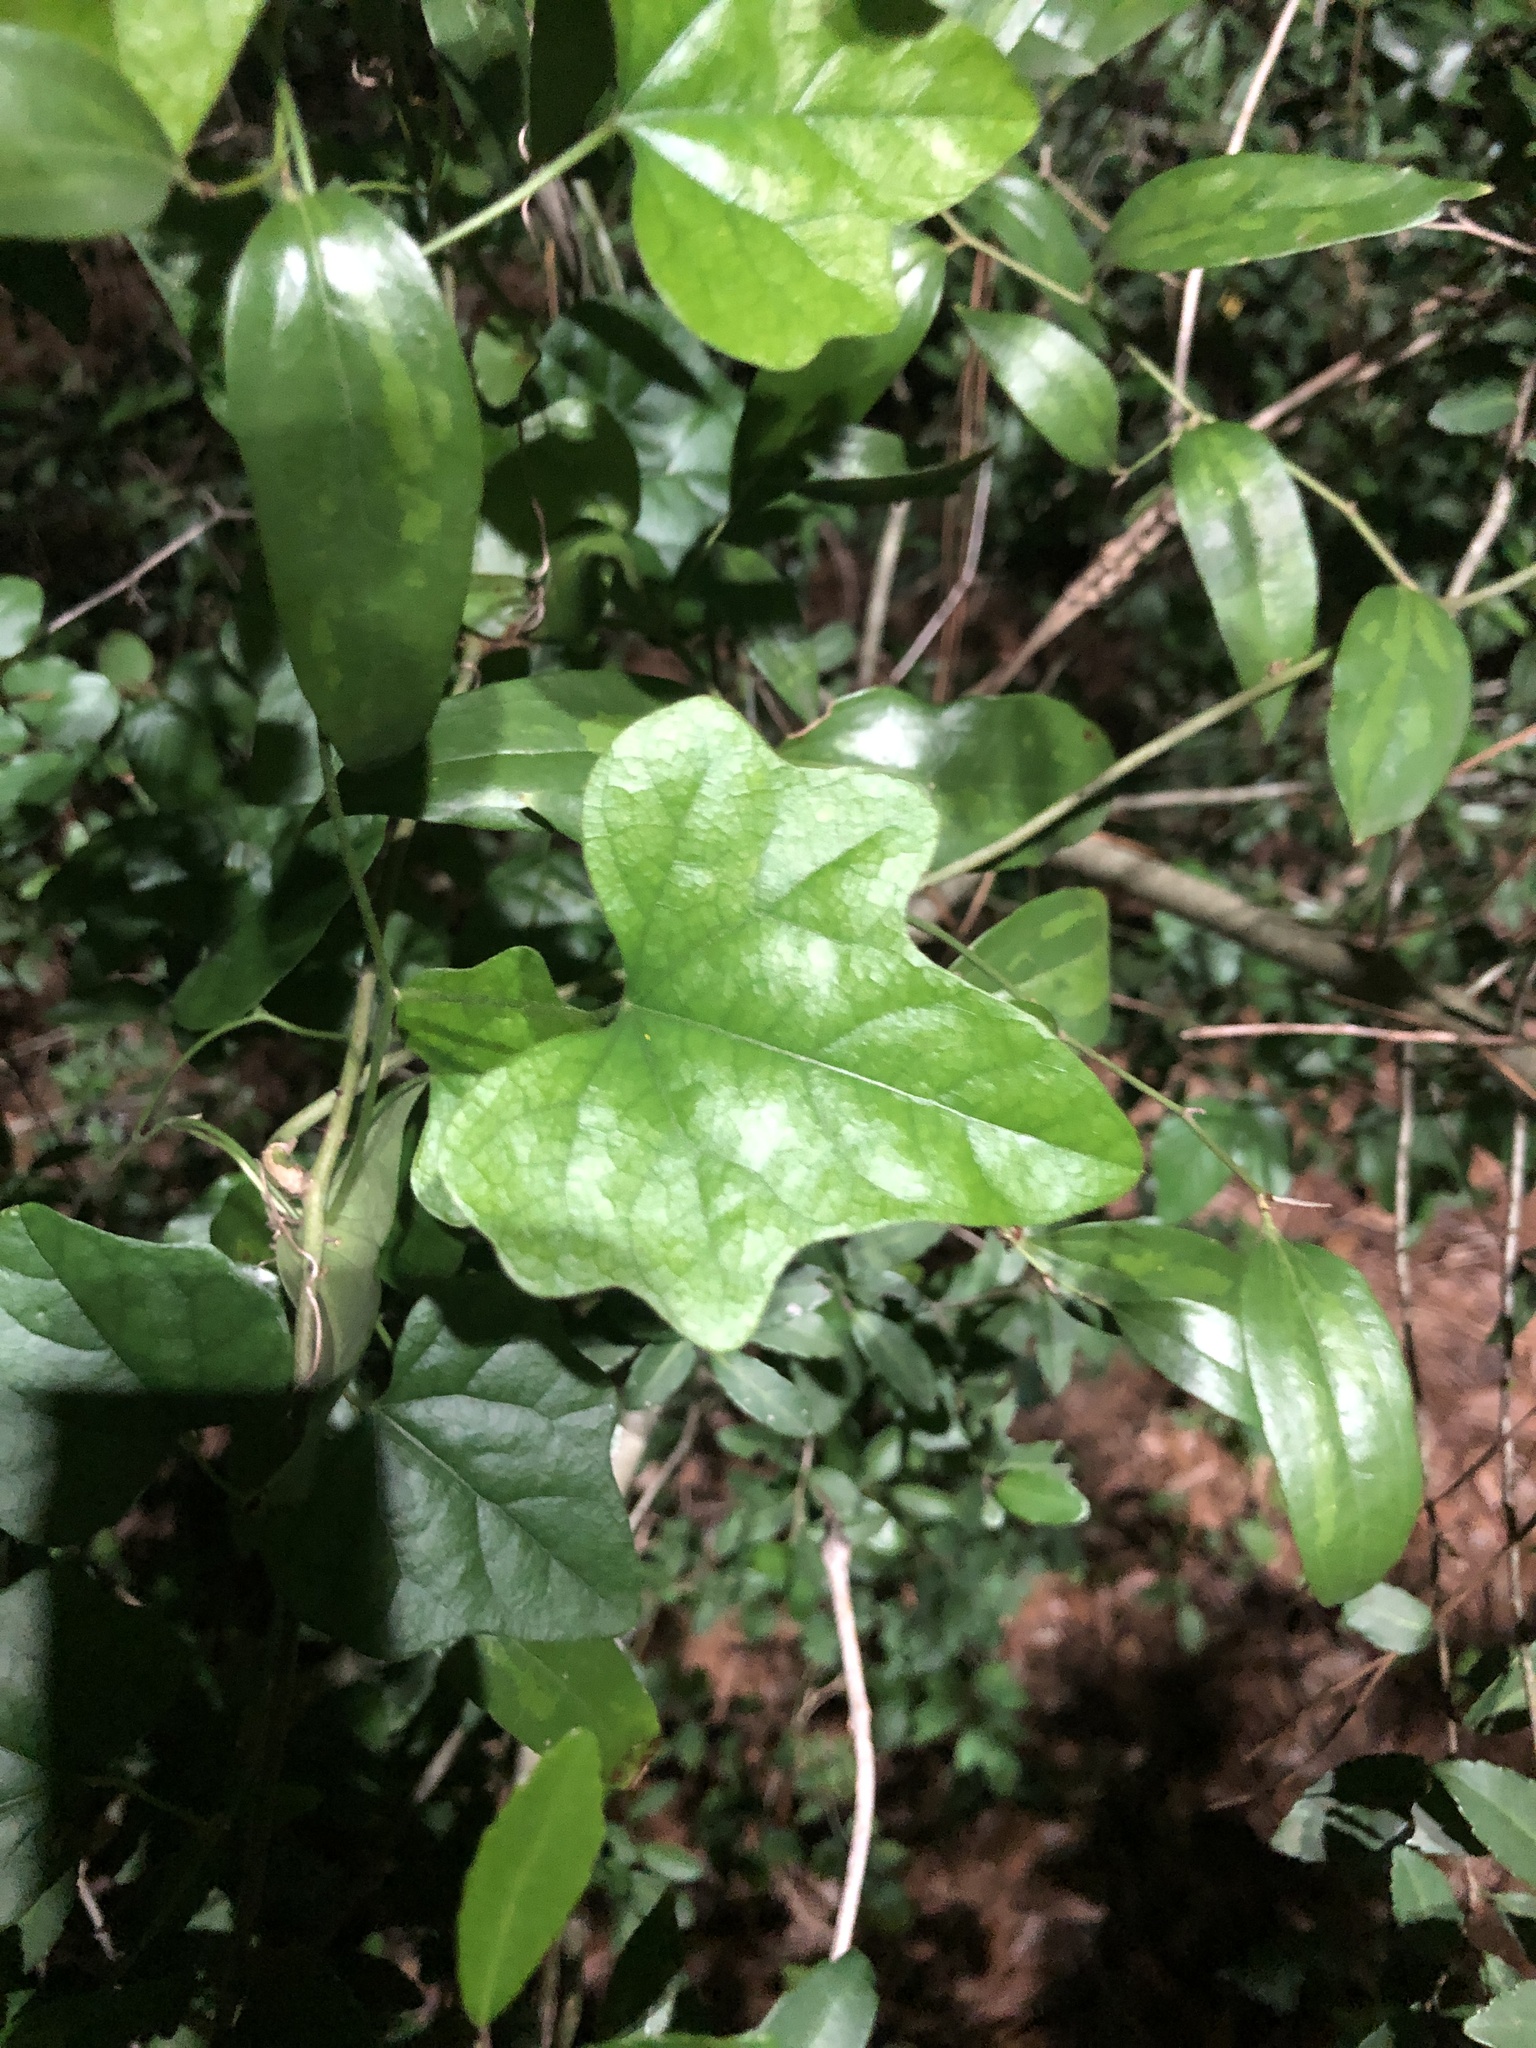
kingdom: Plantae
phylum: Tracheophyta
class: Magnoliopsida
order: Ranunculales
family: Menispermaceae
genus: Cocculus
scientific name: Cocculus carolinus
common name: Carolina moonseed
